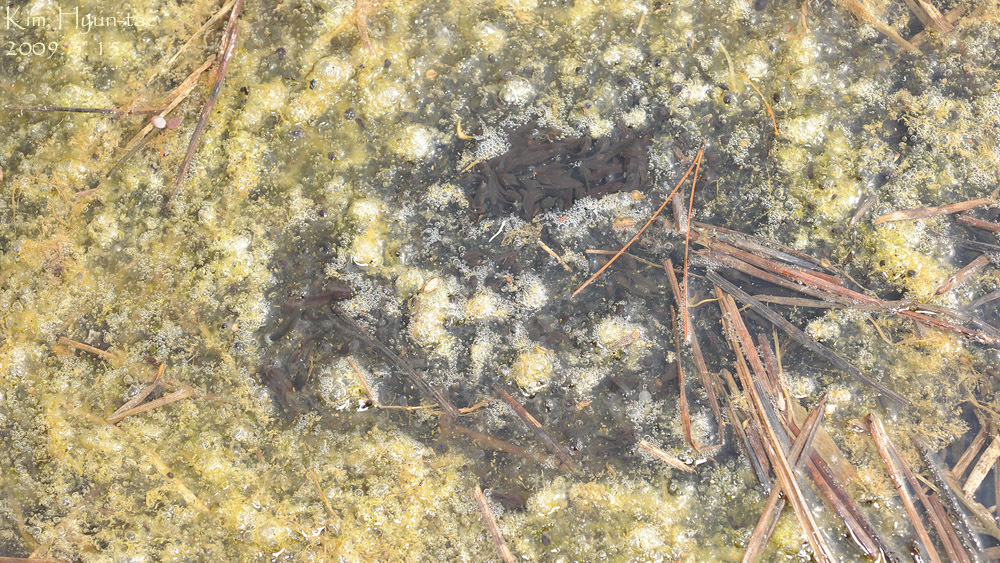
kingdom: Animalia
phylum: Chordata
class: Amphibia
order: Anura
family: Ranidae
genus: Rana
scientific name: Rana uenoi
